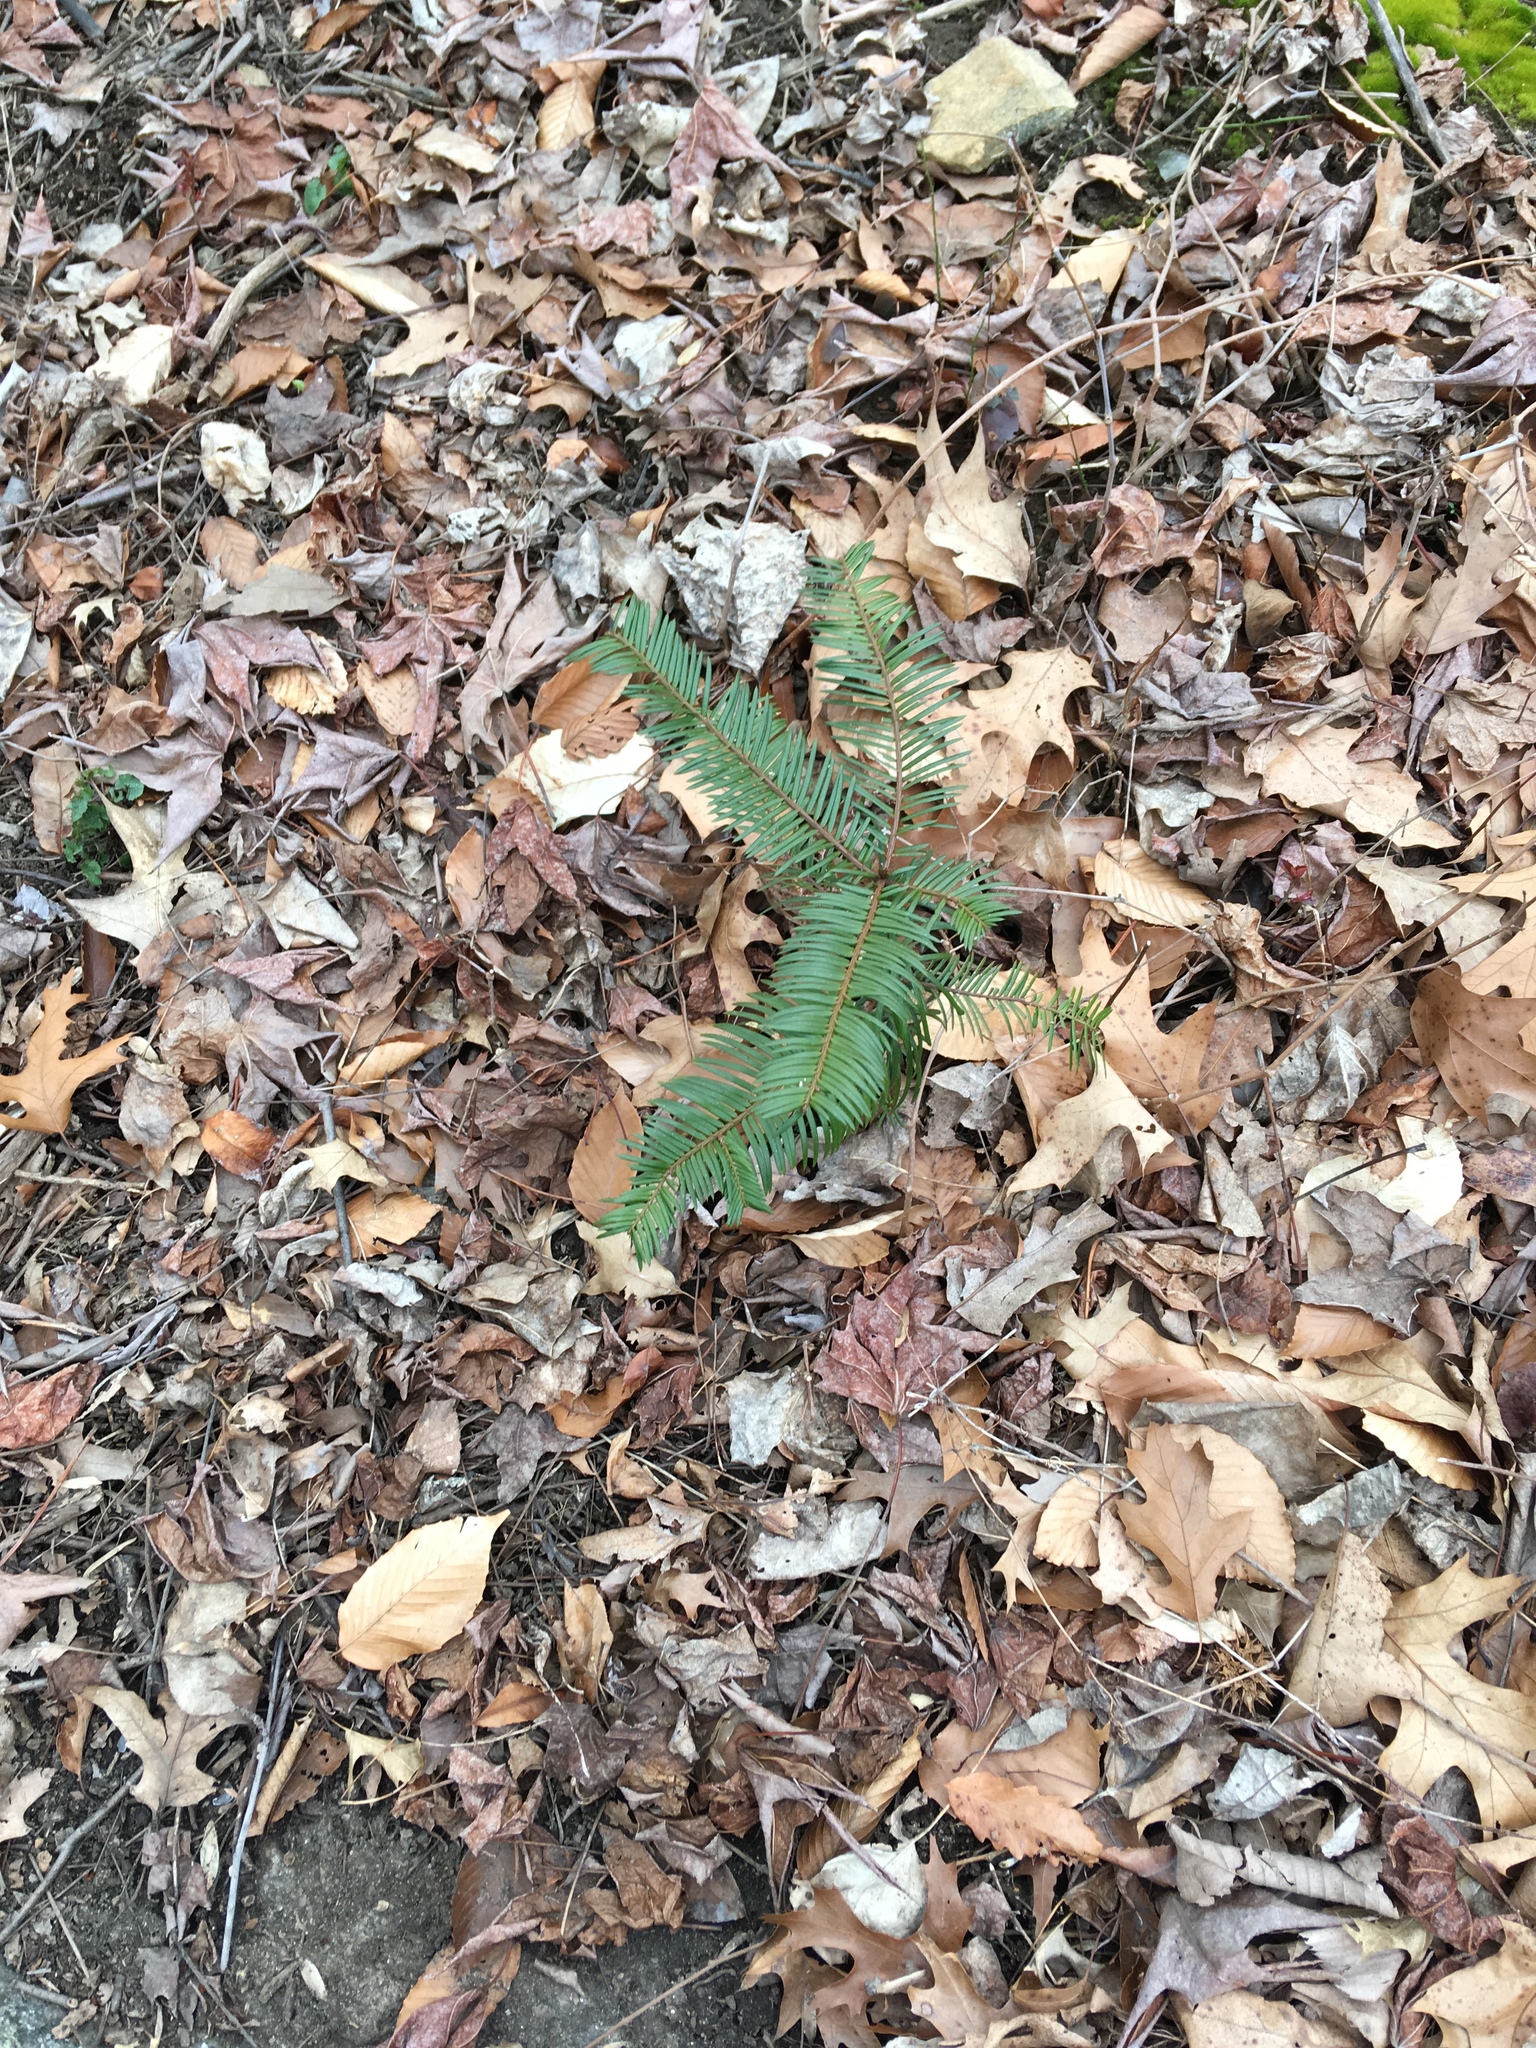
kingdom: Plantae
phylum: Tracheophyta
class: Pinopsida
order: Pinales
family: Cephalotaxaceae
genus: Cephalotaxus
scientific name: Cephalotaxus harringtonia
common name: Japanese plum-yew
